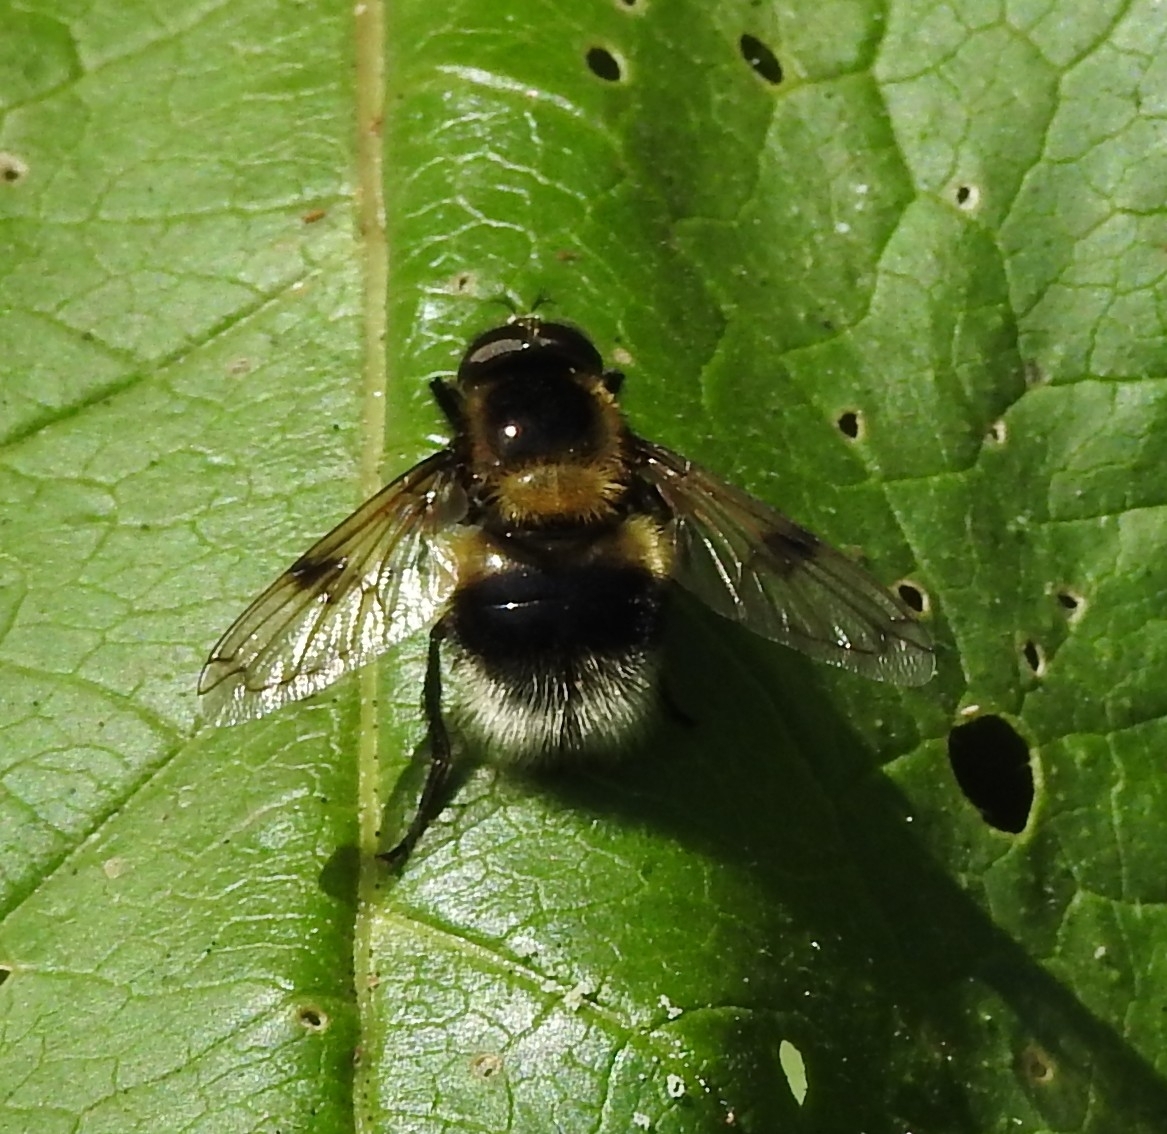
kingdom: Animalia
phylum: Arthropoda
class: Insecta
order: Diptera
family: Syrphidae
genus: Volucella
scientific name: Volucella bombylans
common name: Bumble bee hover fly
